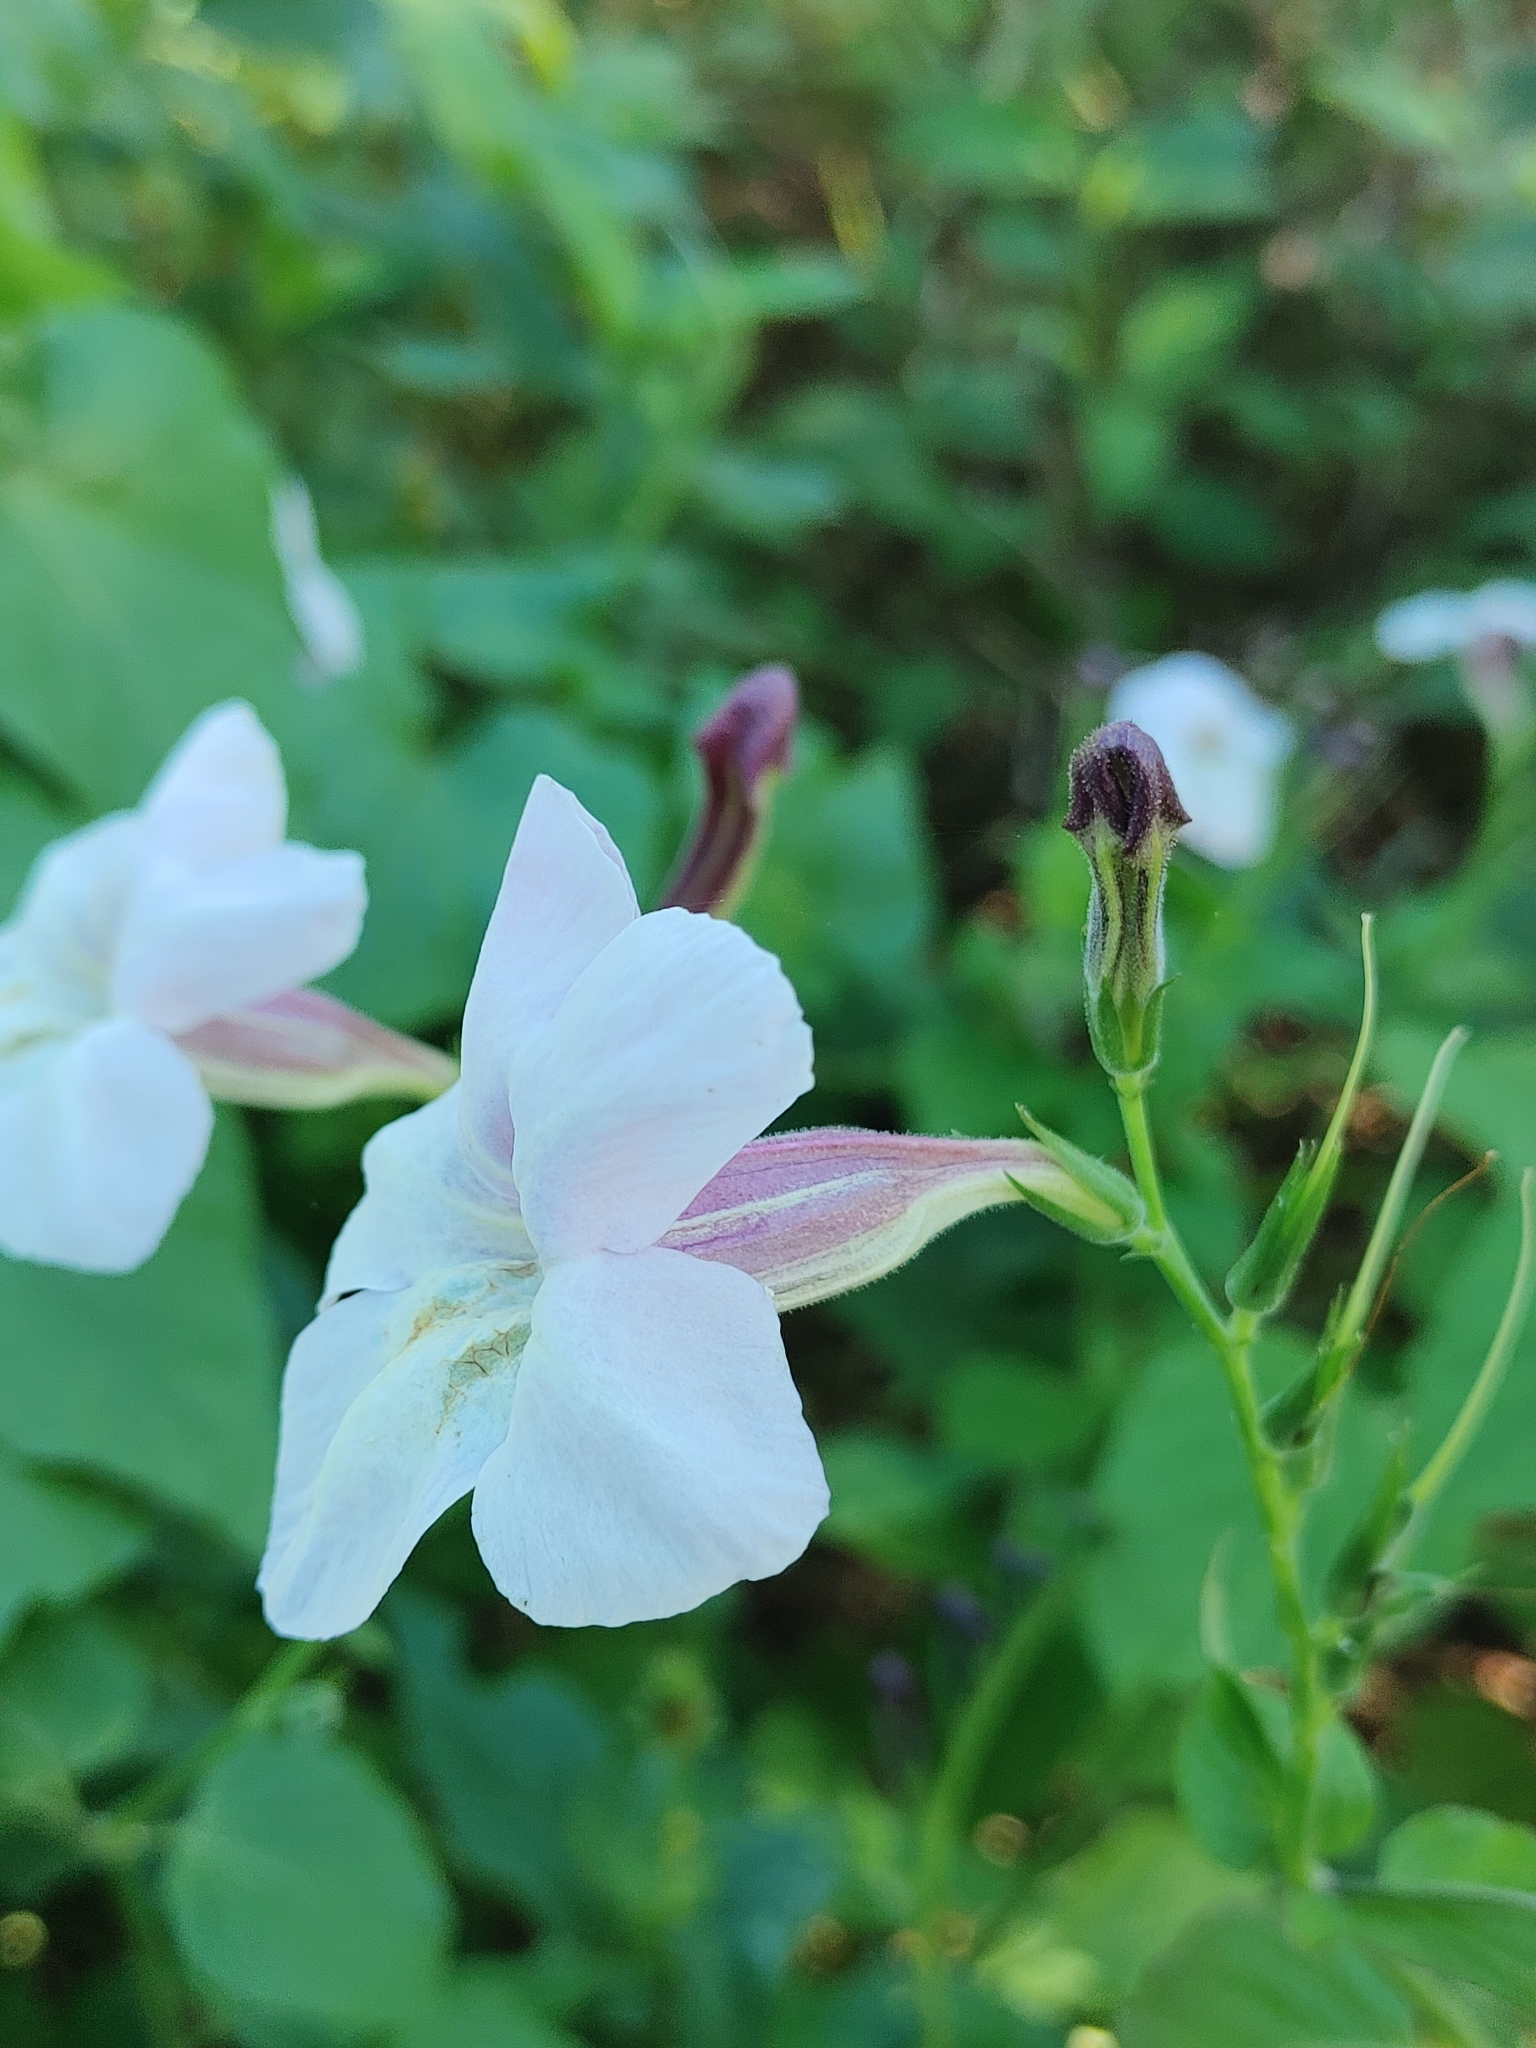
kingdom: Plantae
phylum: Tracheophyta
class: Magnoliopsida
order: Lamiales
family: Acanthaceae
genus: Asystasia
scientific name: Asystasia gangetica
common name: Chinese violet
